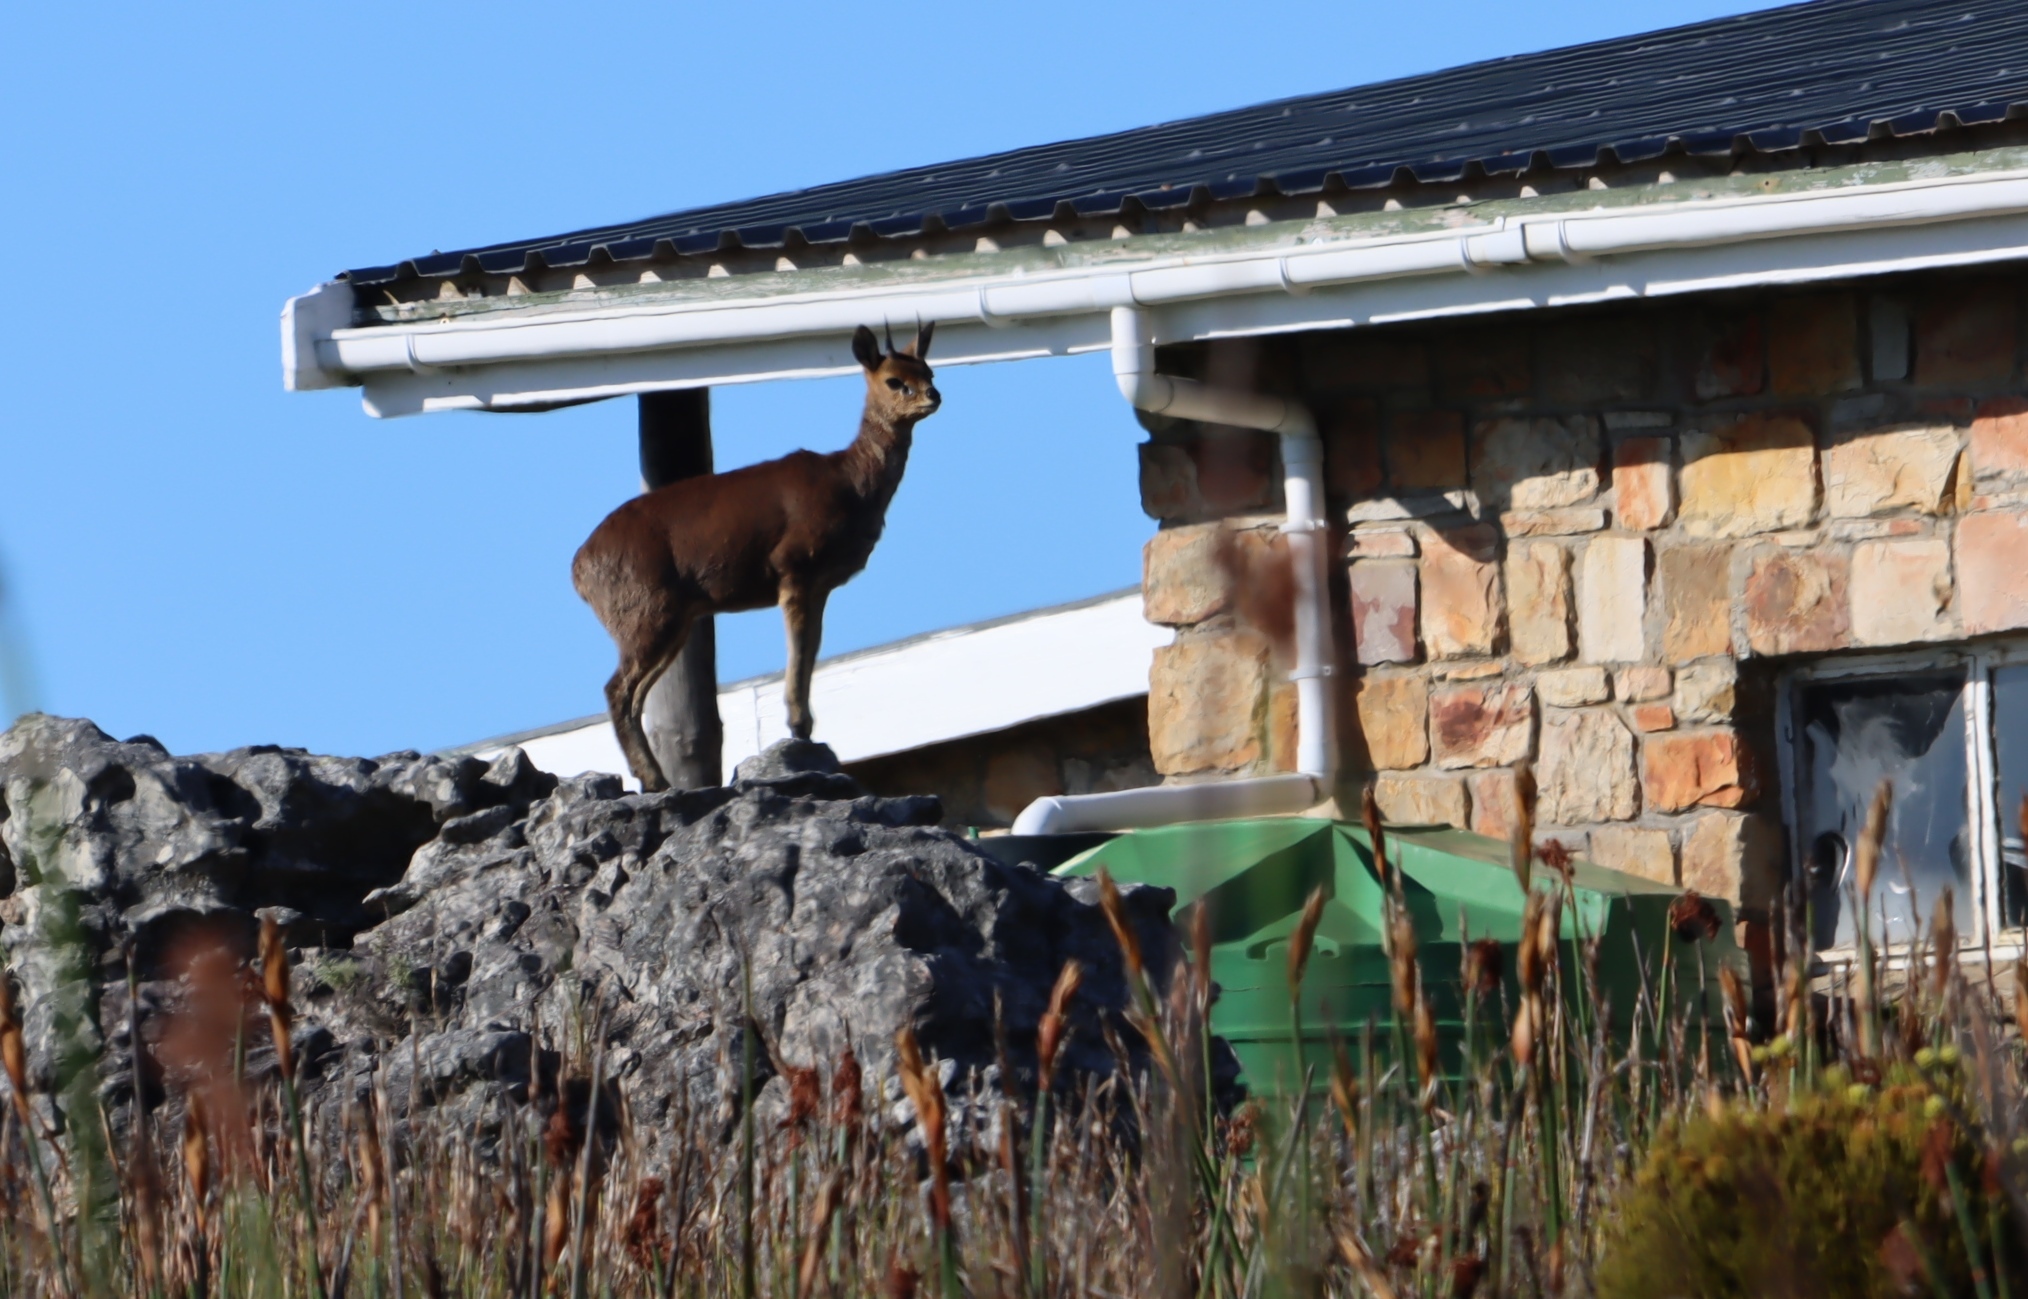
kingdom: Animalia
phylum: Chordata
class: Mammalia
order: Artiodactyla
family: Bovidae
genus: Oreotragus
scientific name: Oreotragus oreotragus
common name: Klipspringer
